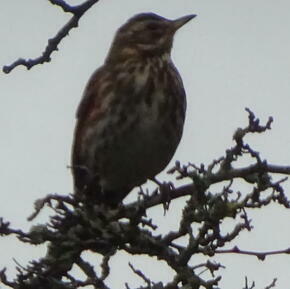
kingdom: Animalia
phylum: Chordata
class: Aves
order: Passeriformes
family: Turdidae
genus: Turdus
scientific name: Turdus iliacus
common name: Redwing
